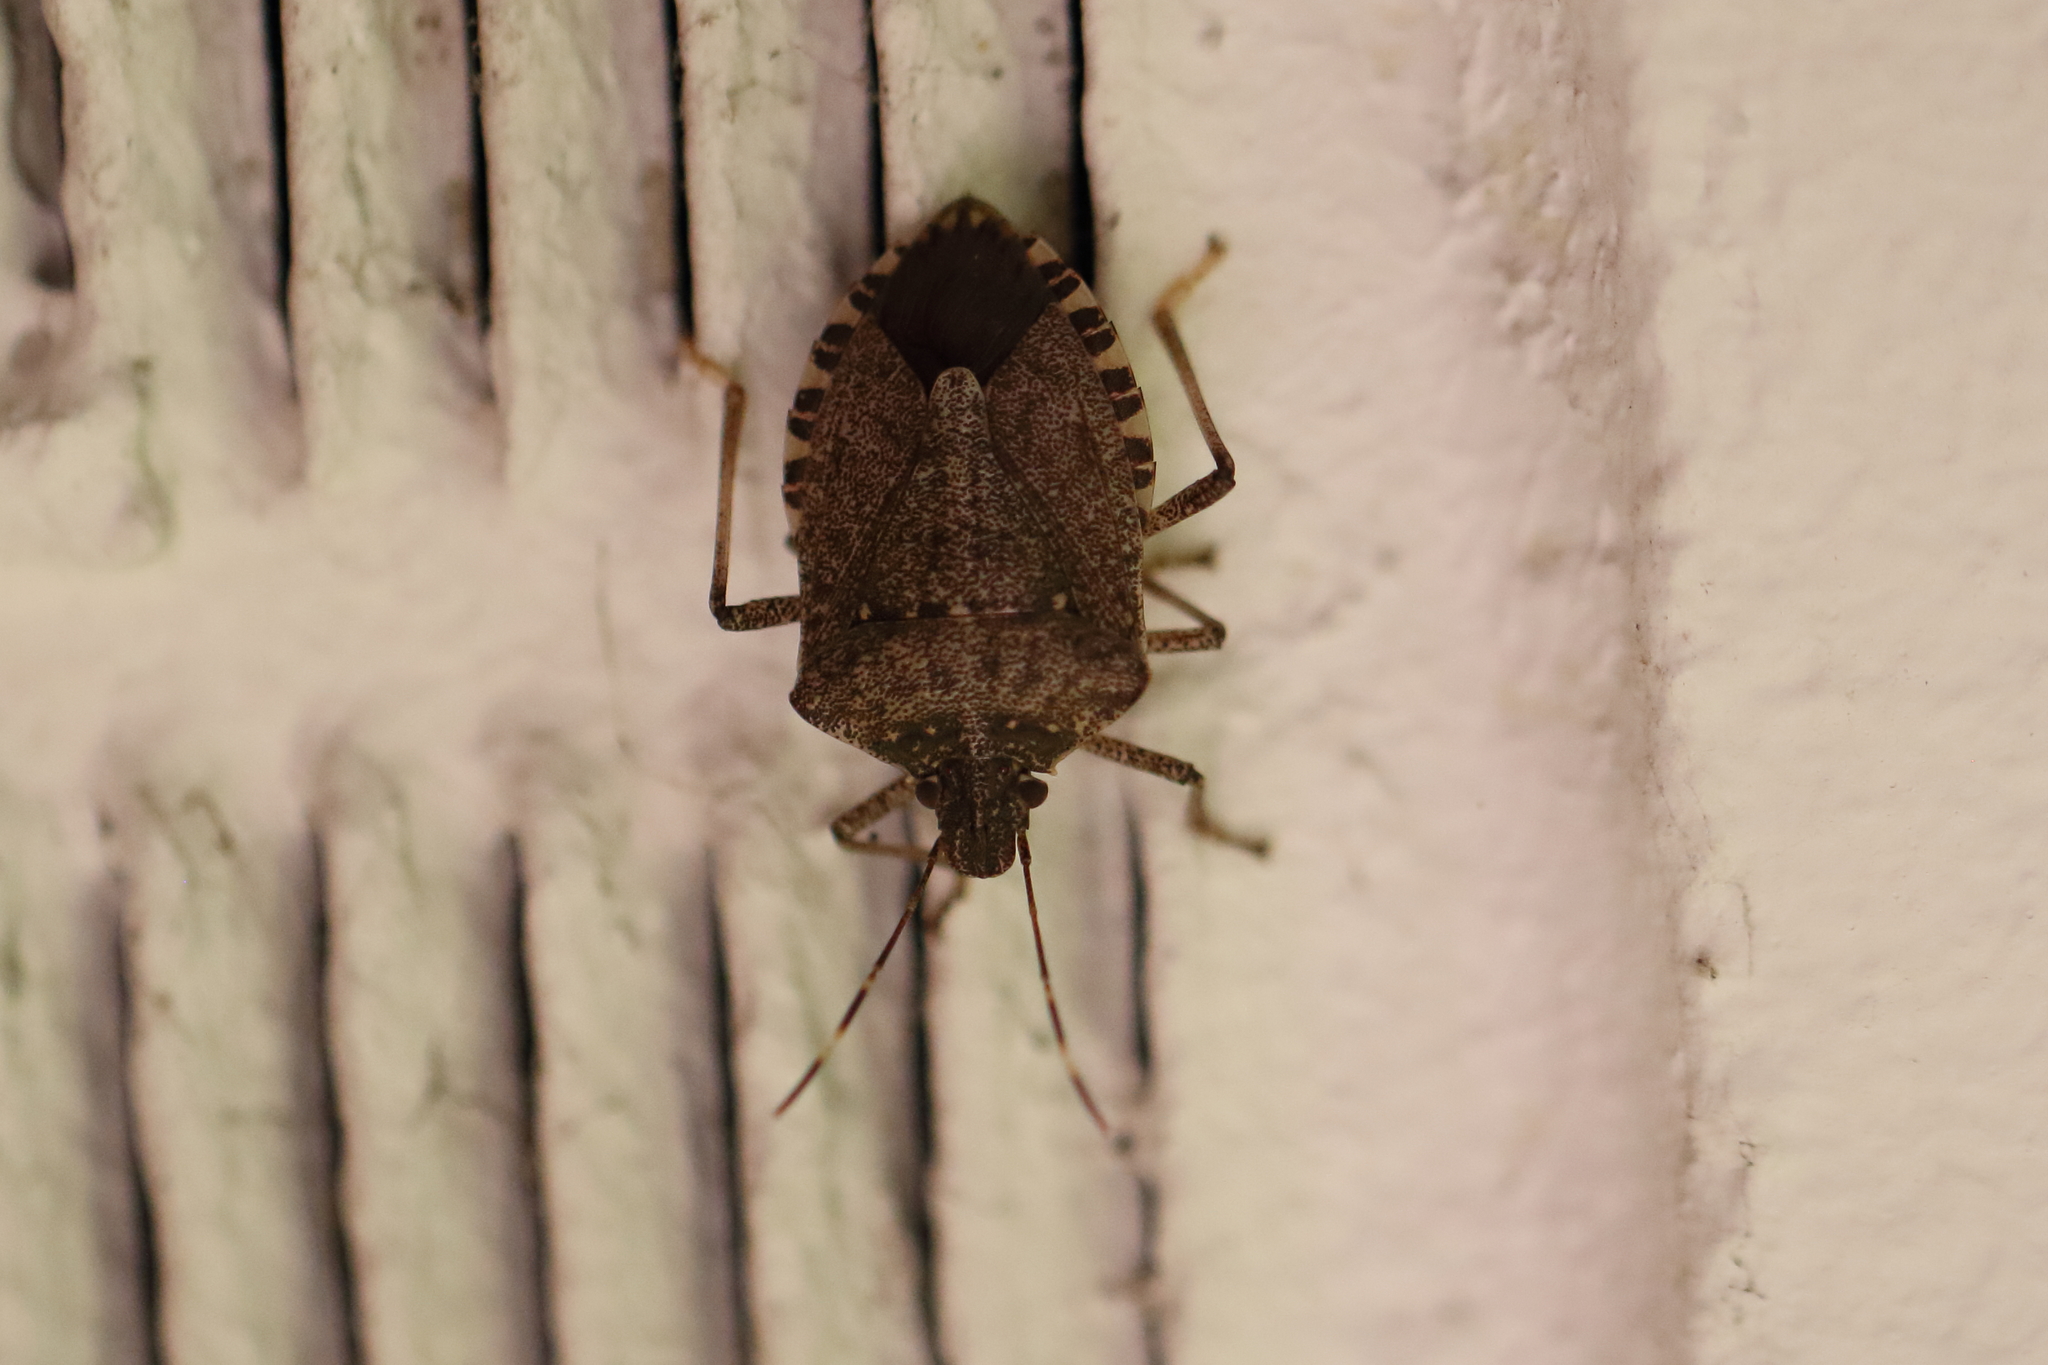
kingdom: Animalia
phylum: Arthropoda
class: Insecta
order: Hemiptera
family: Pentatomidae
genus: Halyomorpha
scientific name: Halyomorpha halys
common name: Brown marmorated stink bug
